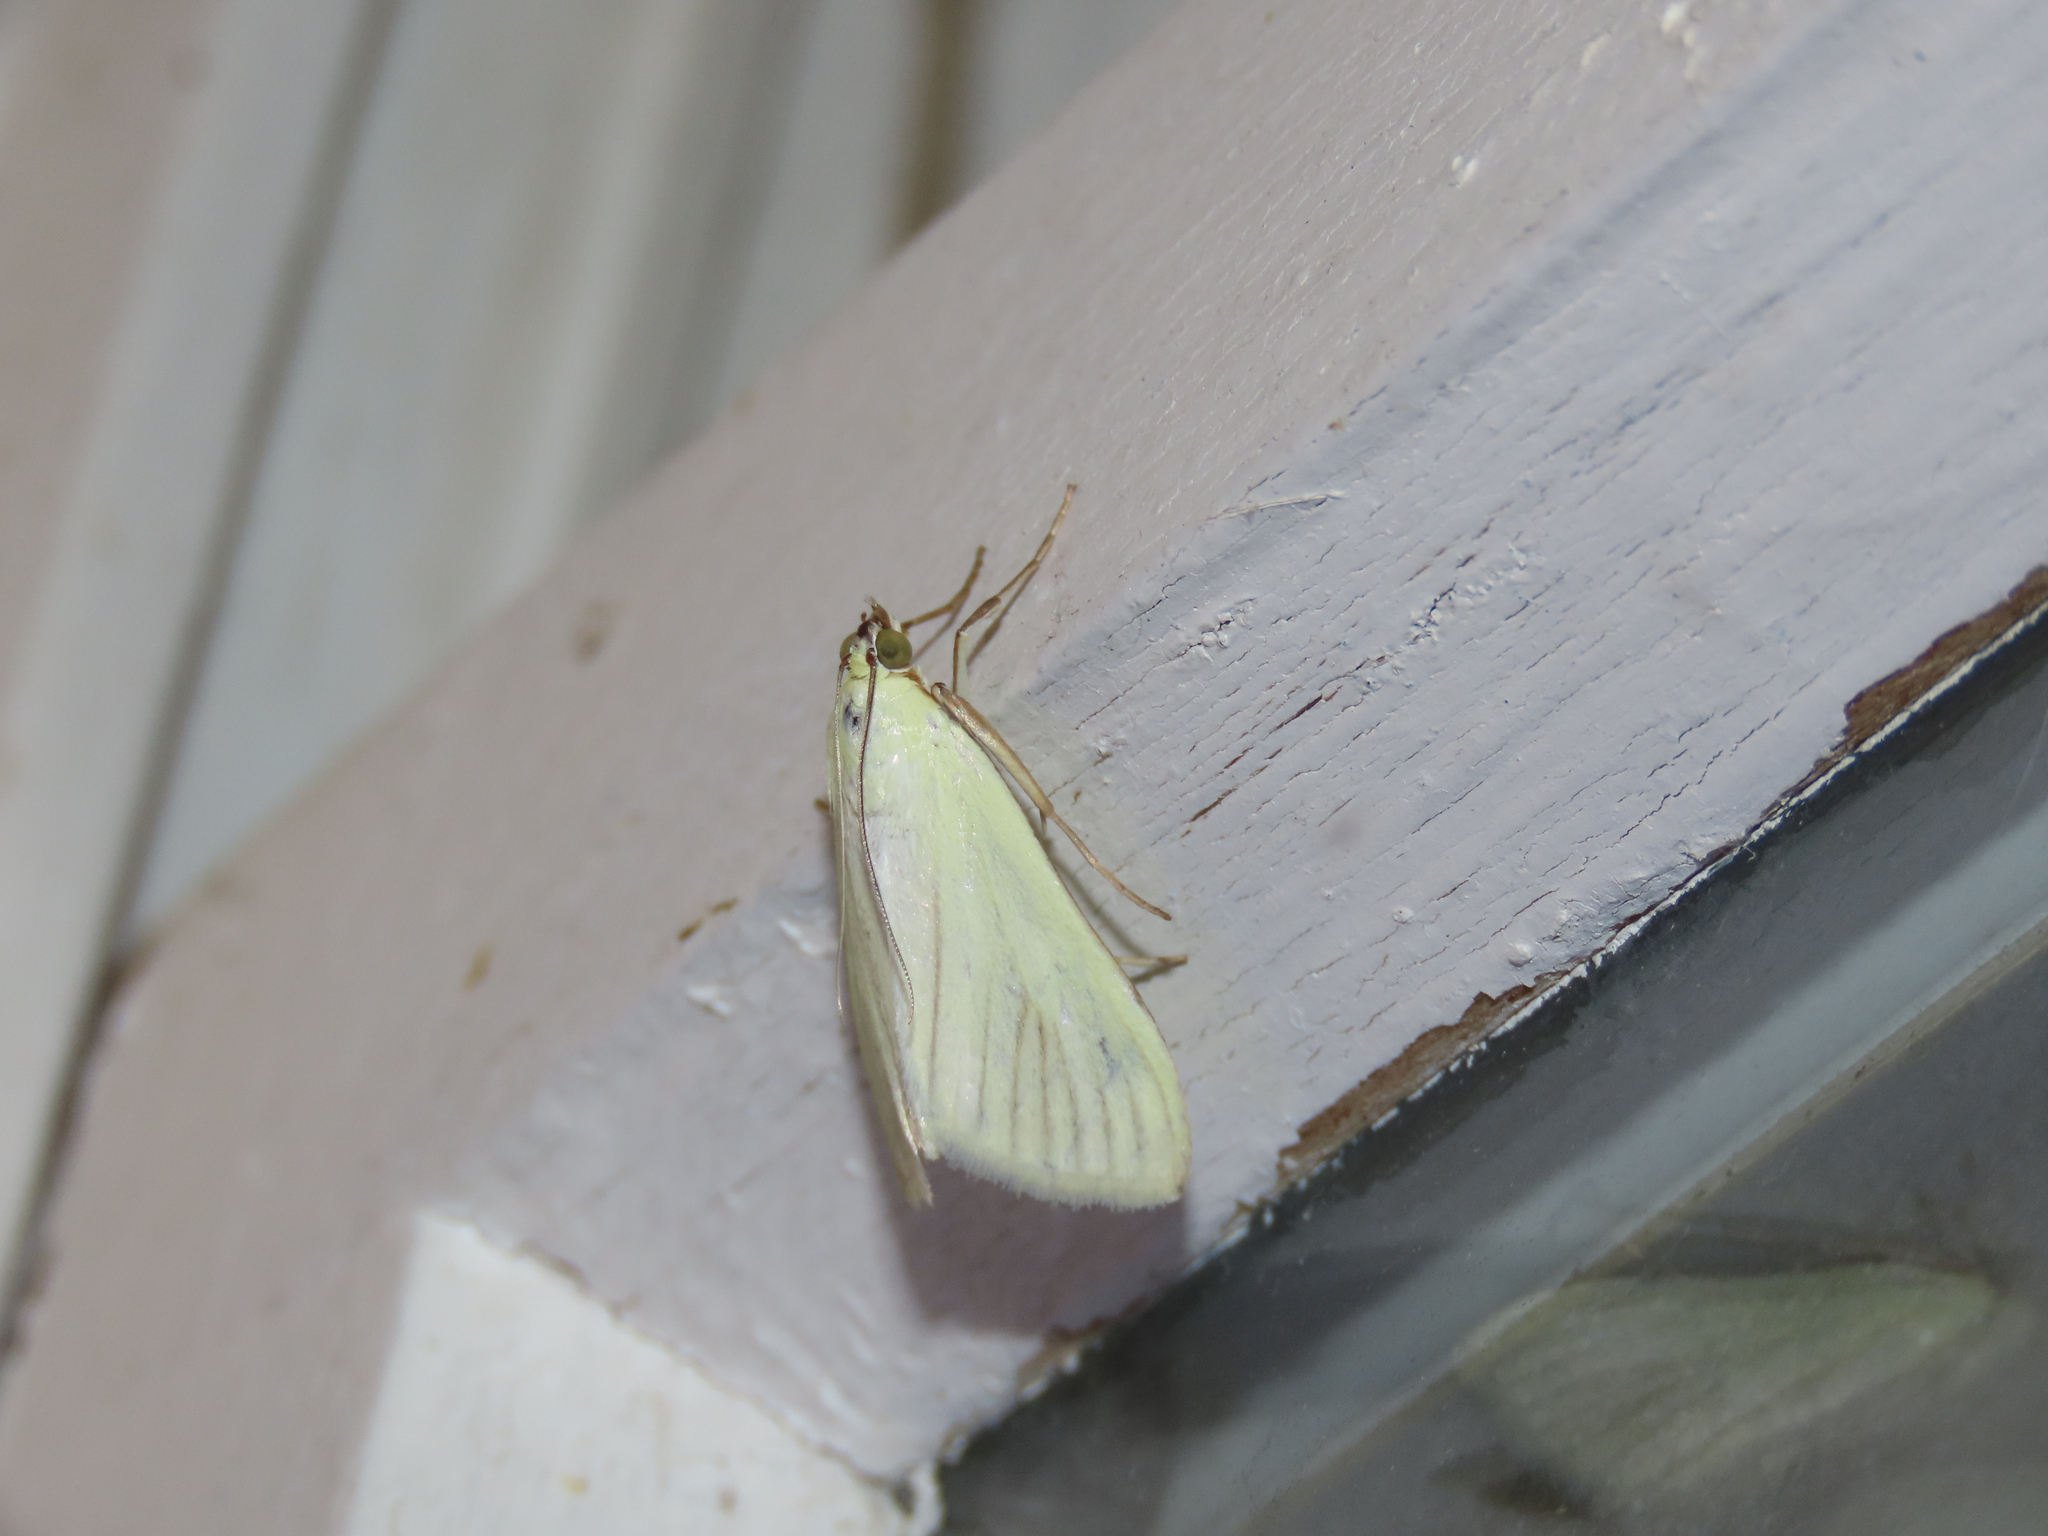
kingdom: Animalia
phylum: Arthropoda
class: Insecta
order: Lepidoptera
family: Crambidae
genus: Sitochroa
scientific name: Sitochroa palealis
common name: Greenish-yellow sitochroa moth
